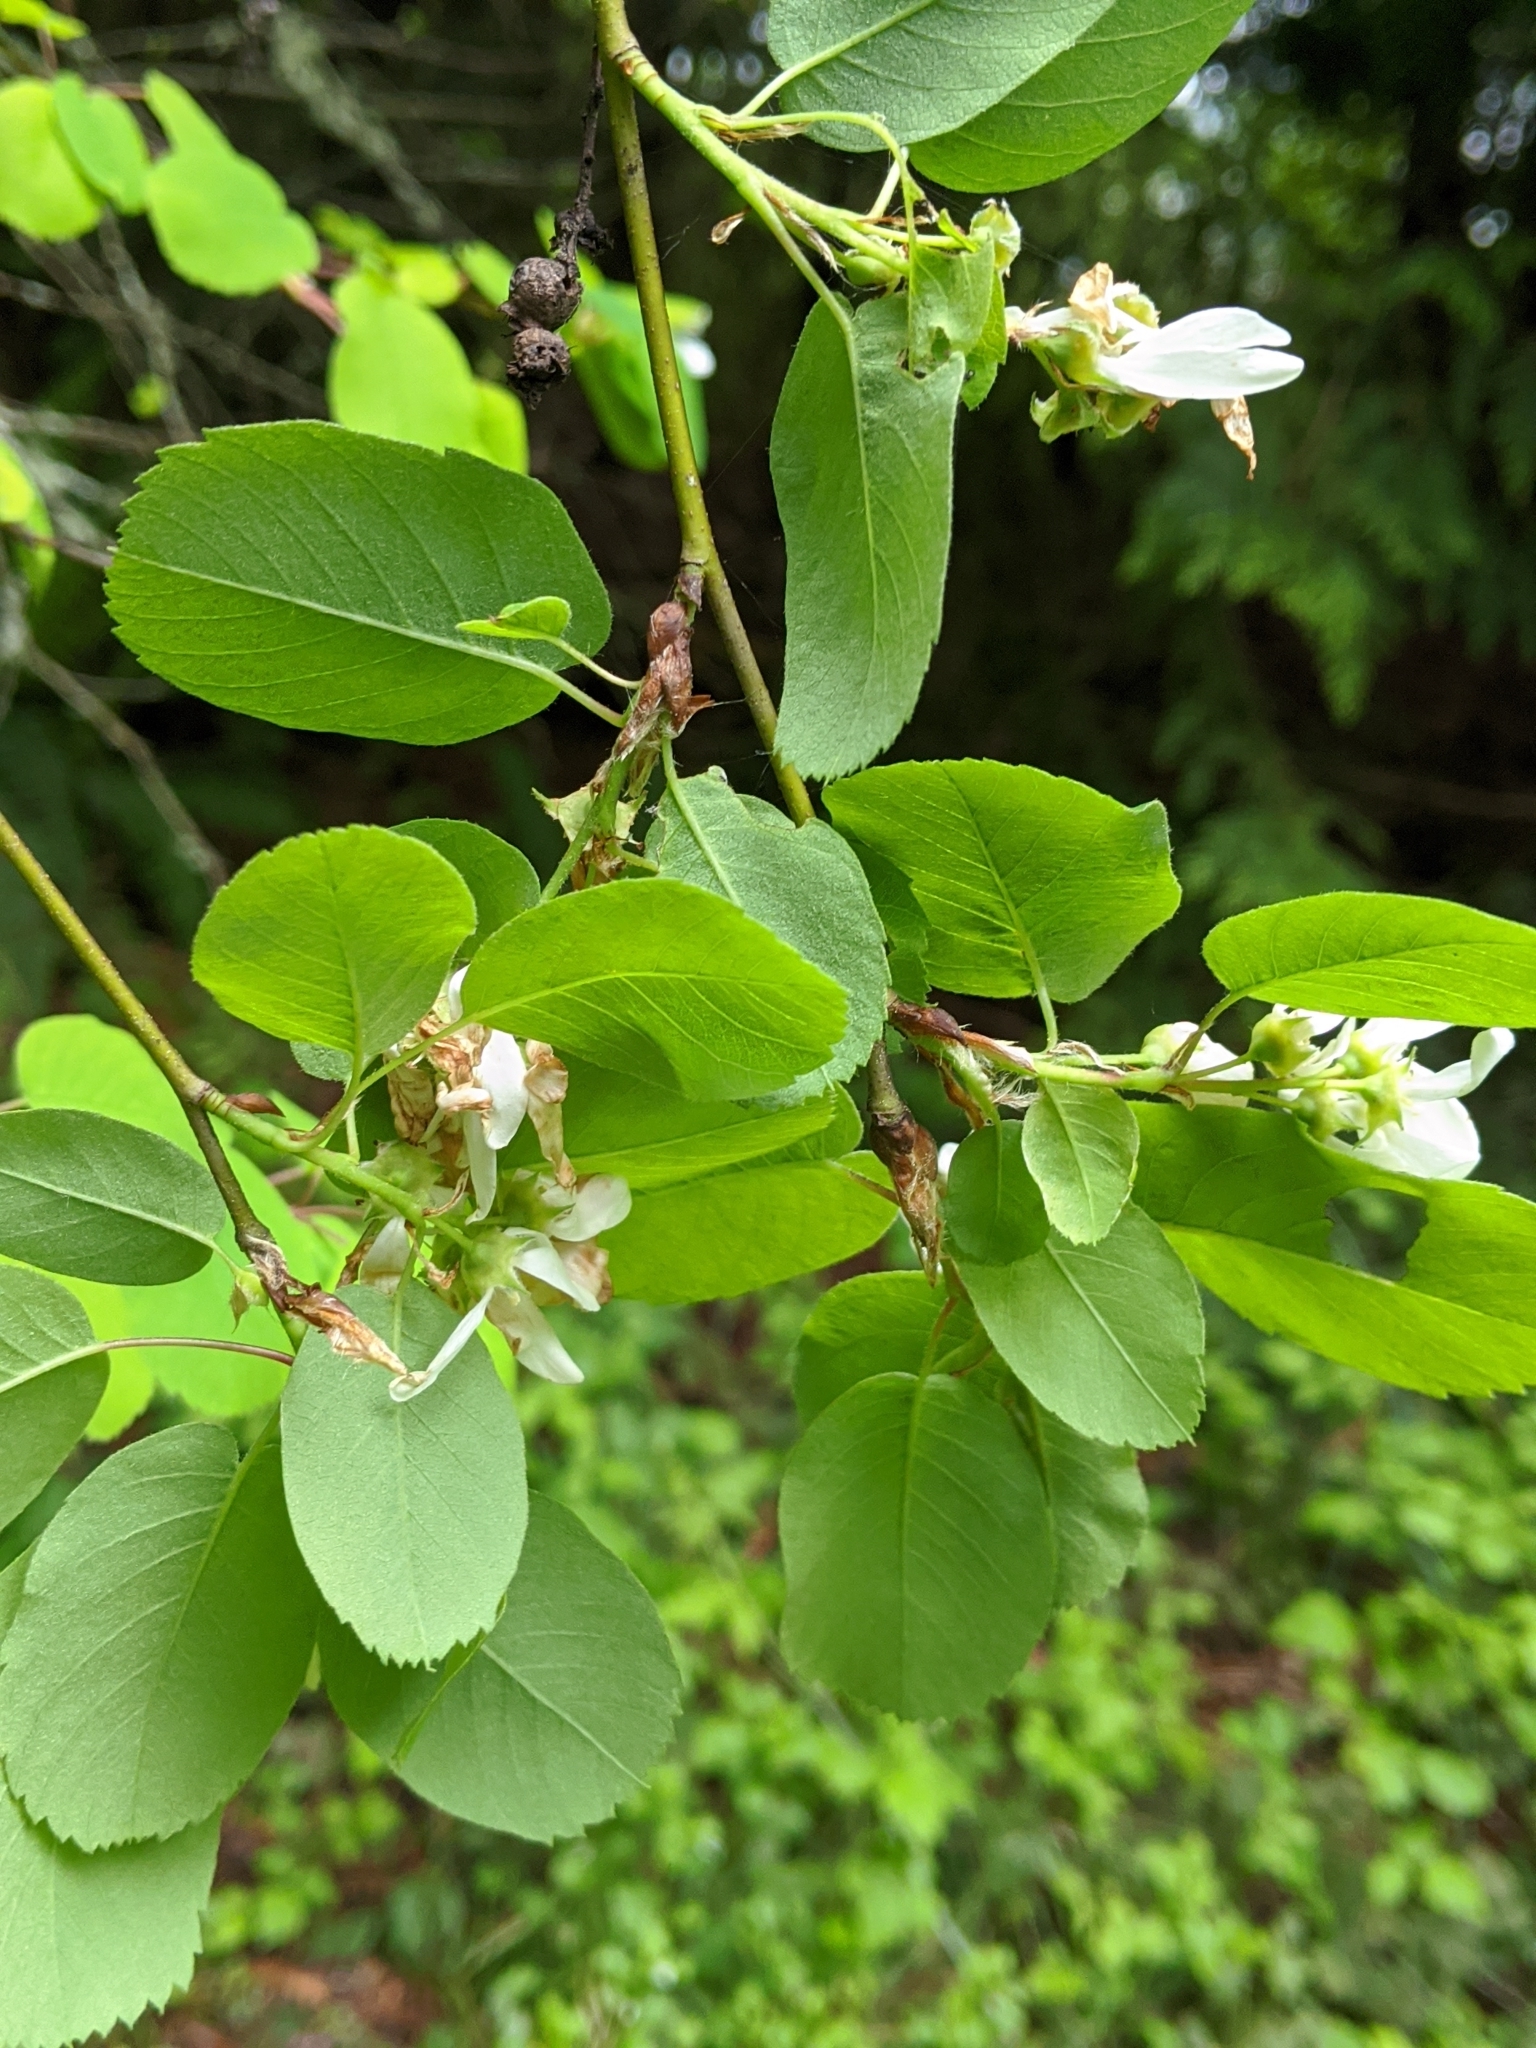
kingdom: Plantae
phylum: Tracheophyta
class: Magnoliopsida
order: Rosales
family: Rosaceae
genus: Amelanchier
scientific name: Amelanchier alnifolia
